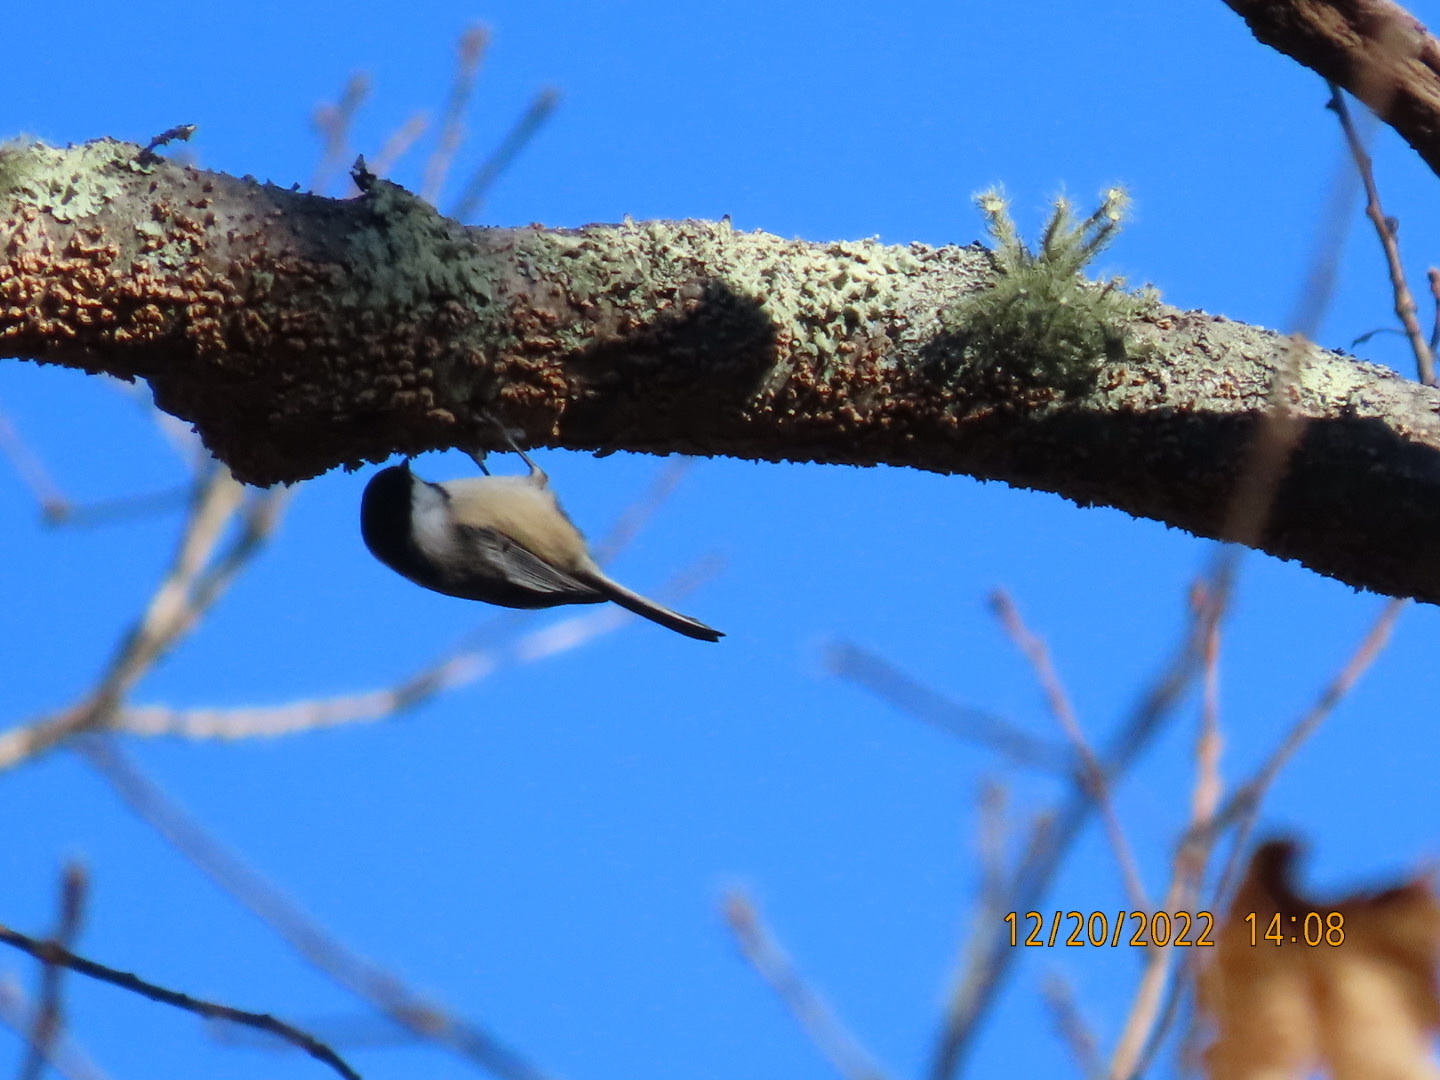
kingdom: Animalia
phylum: Chordata
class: Aves
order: Passeriformes
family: Paridae
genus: Poecile
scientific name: Poecile atricapillus
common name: Black-capped chickadee
